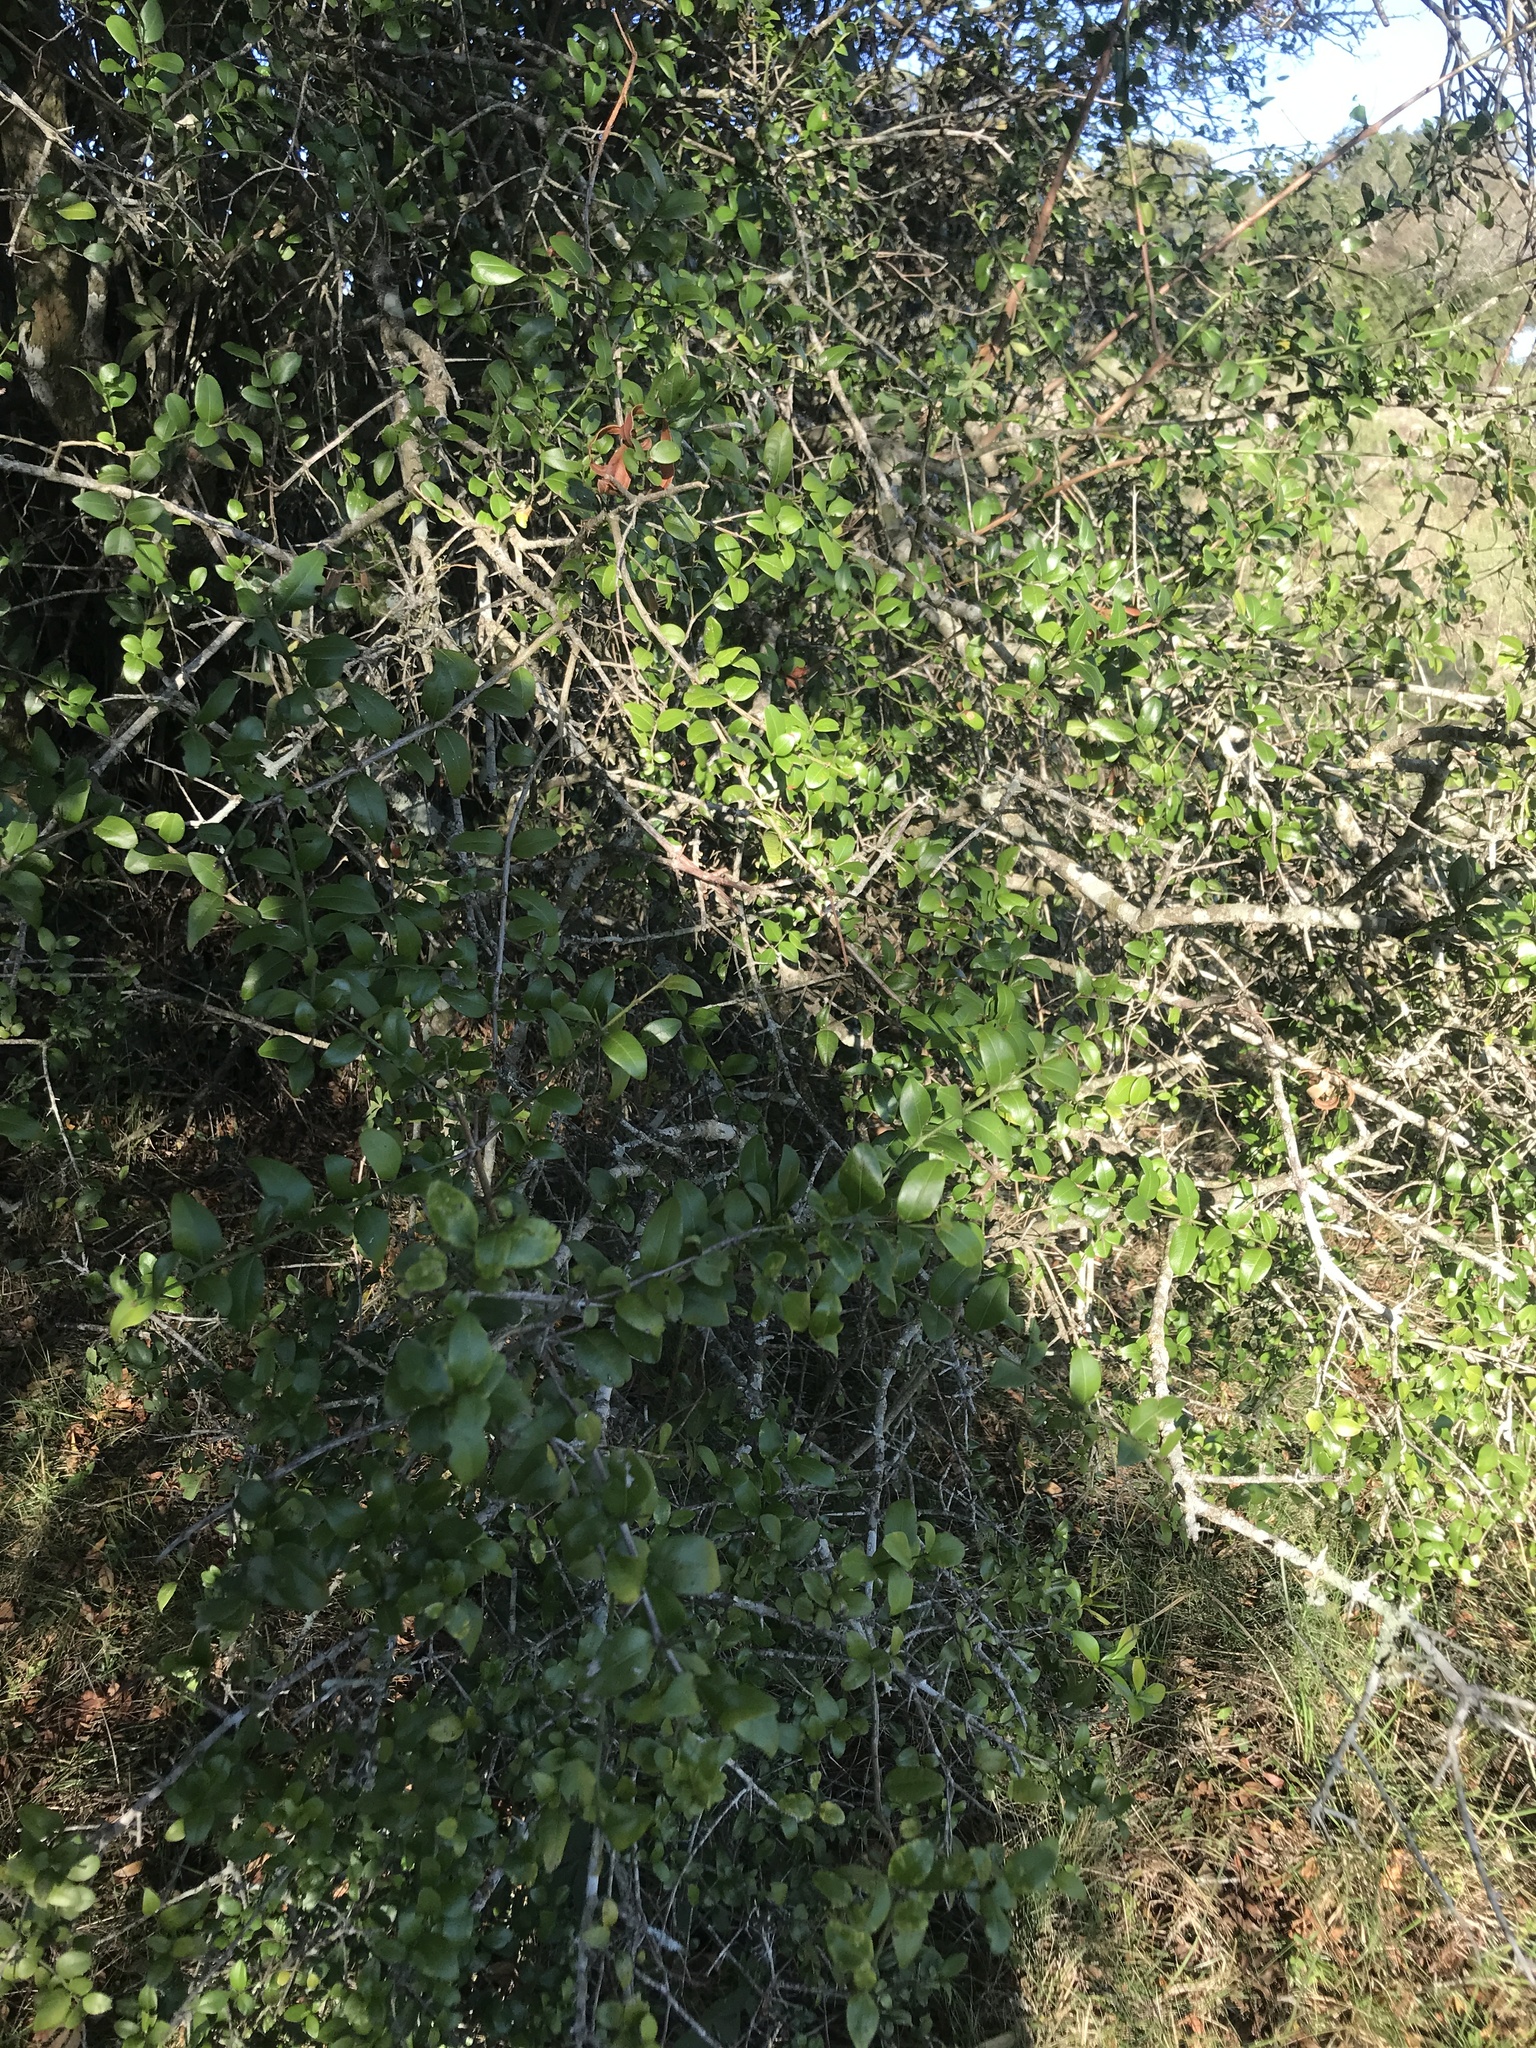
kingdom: Plantae
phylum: Tracheophyta
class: Magnoliopsida
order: Rosales
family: Rhamnaceae
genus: Scutia
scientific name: Scutia buxifolia
